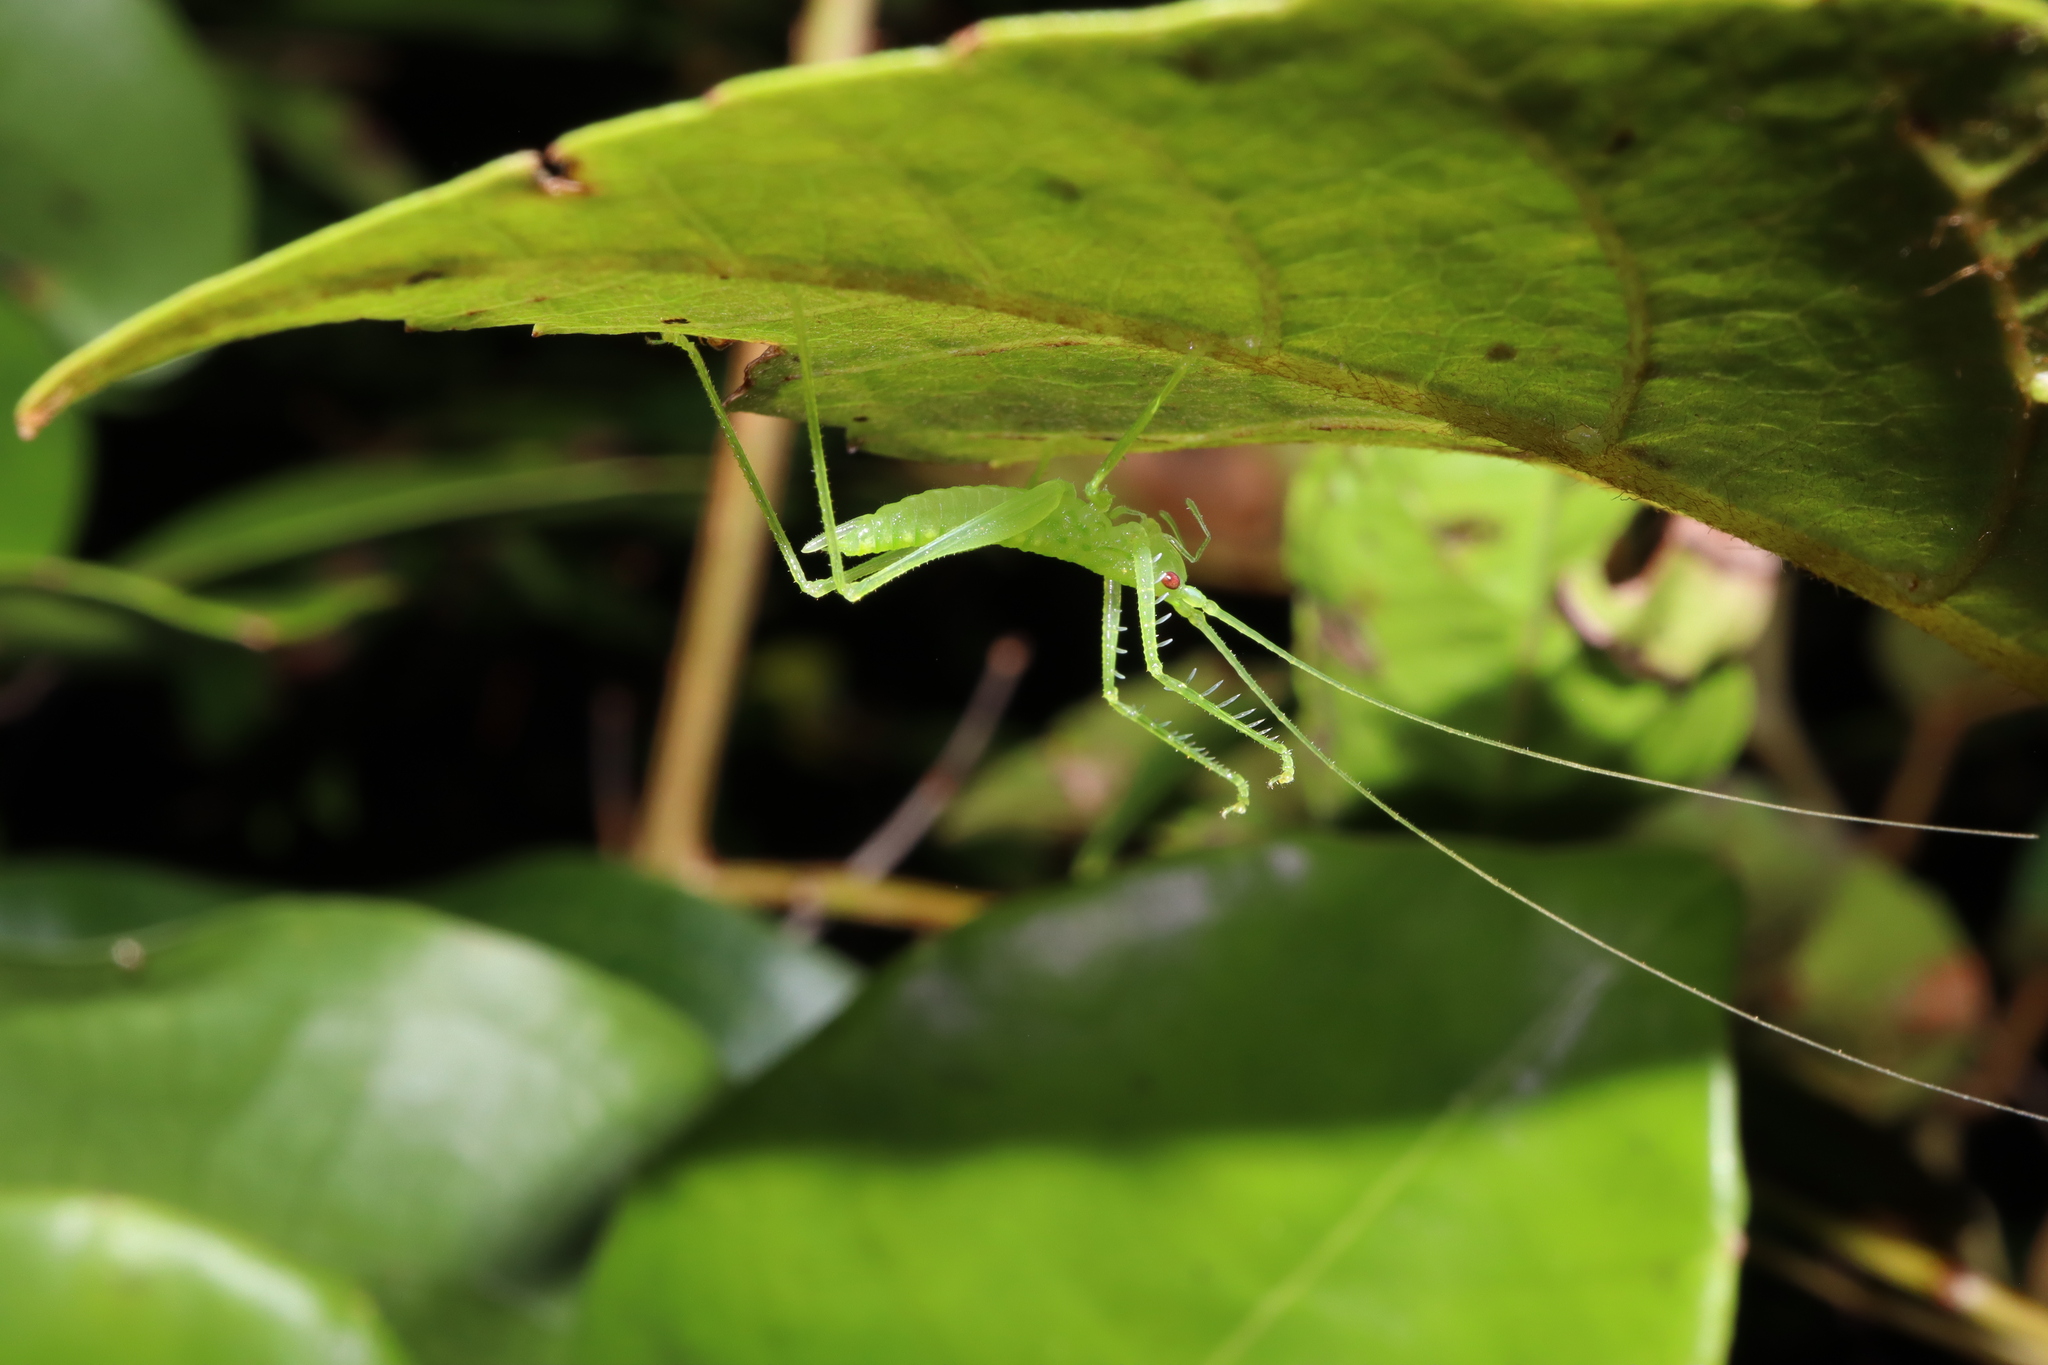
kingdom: Animalia
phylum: Arthropoda
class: Insecta
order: Orthoptera
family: Tettigoniidae
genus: Paraphisis
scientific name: Paraphisis tryonensis
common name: Tryon island spider katydid
